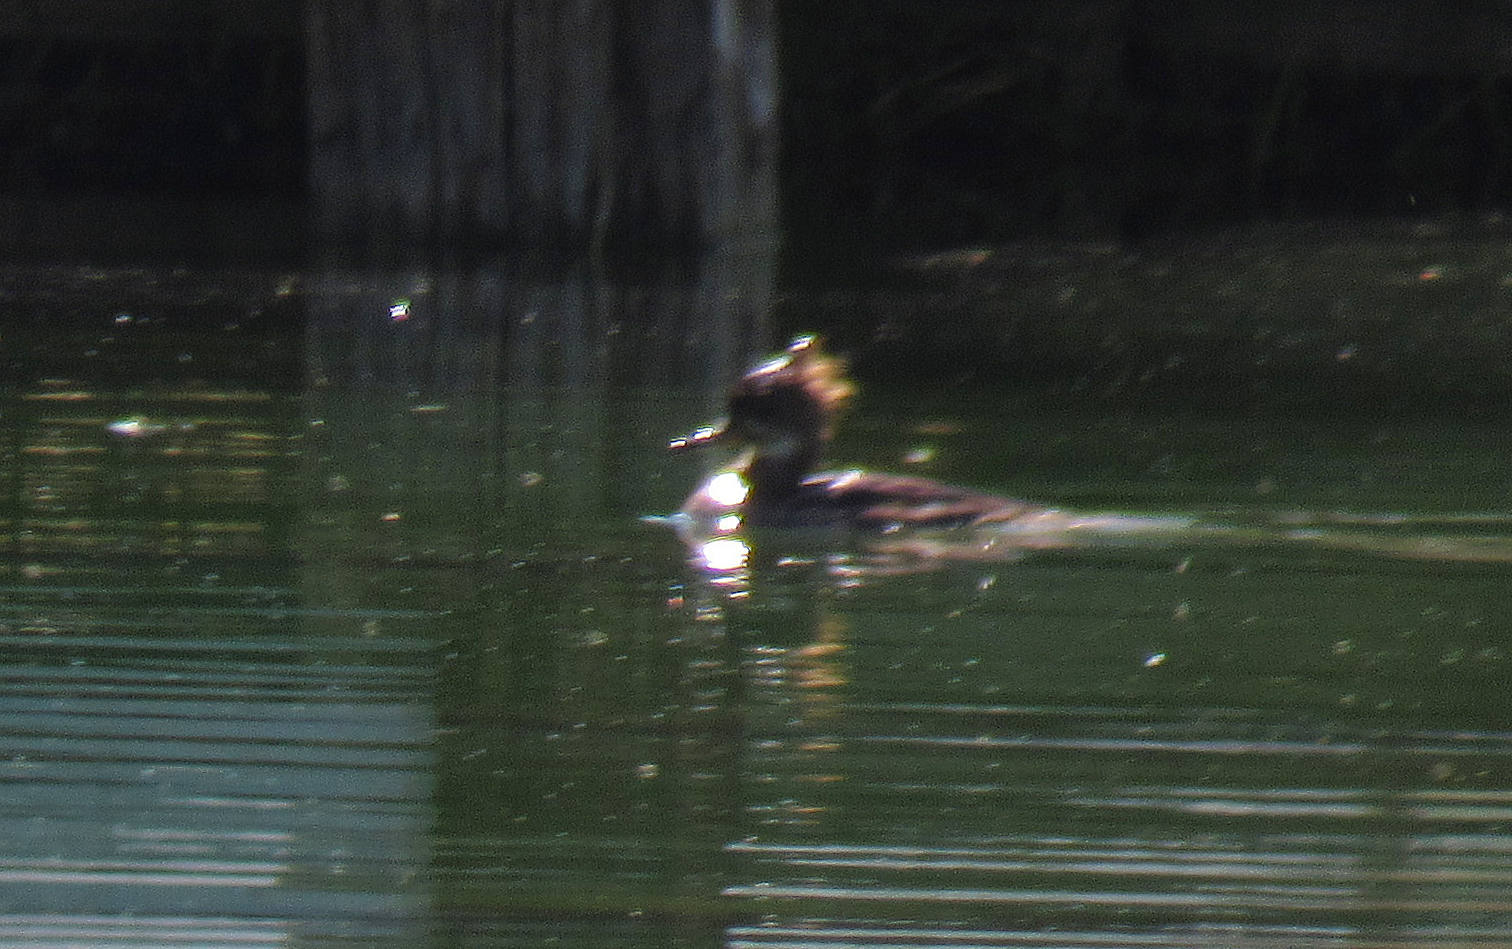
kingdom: Animalia
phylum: Chordata
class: Aves
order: Anseriformes
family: Anatidae
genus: Lophodytes
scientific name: Lophodytes cucullatus
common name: Hooded merganser
